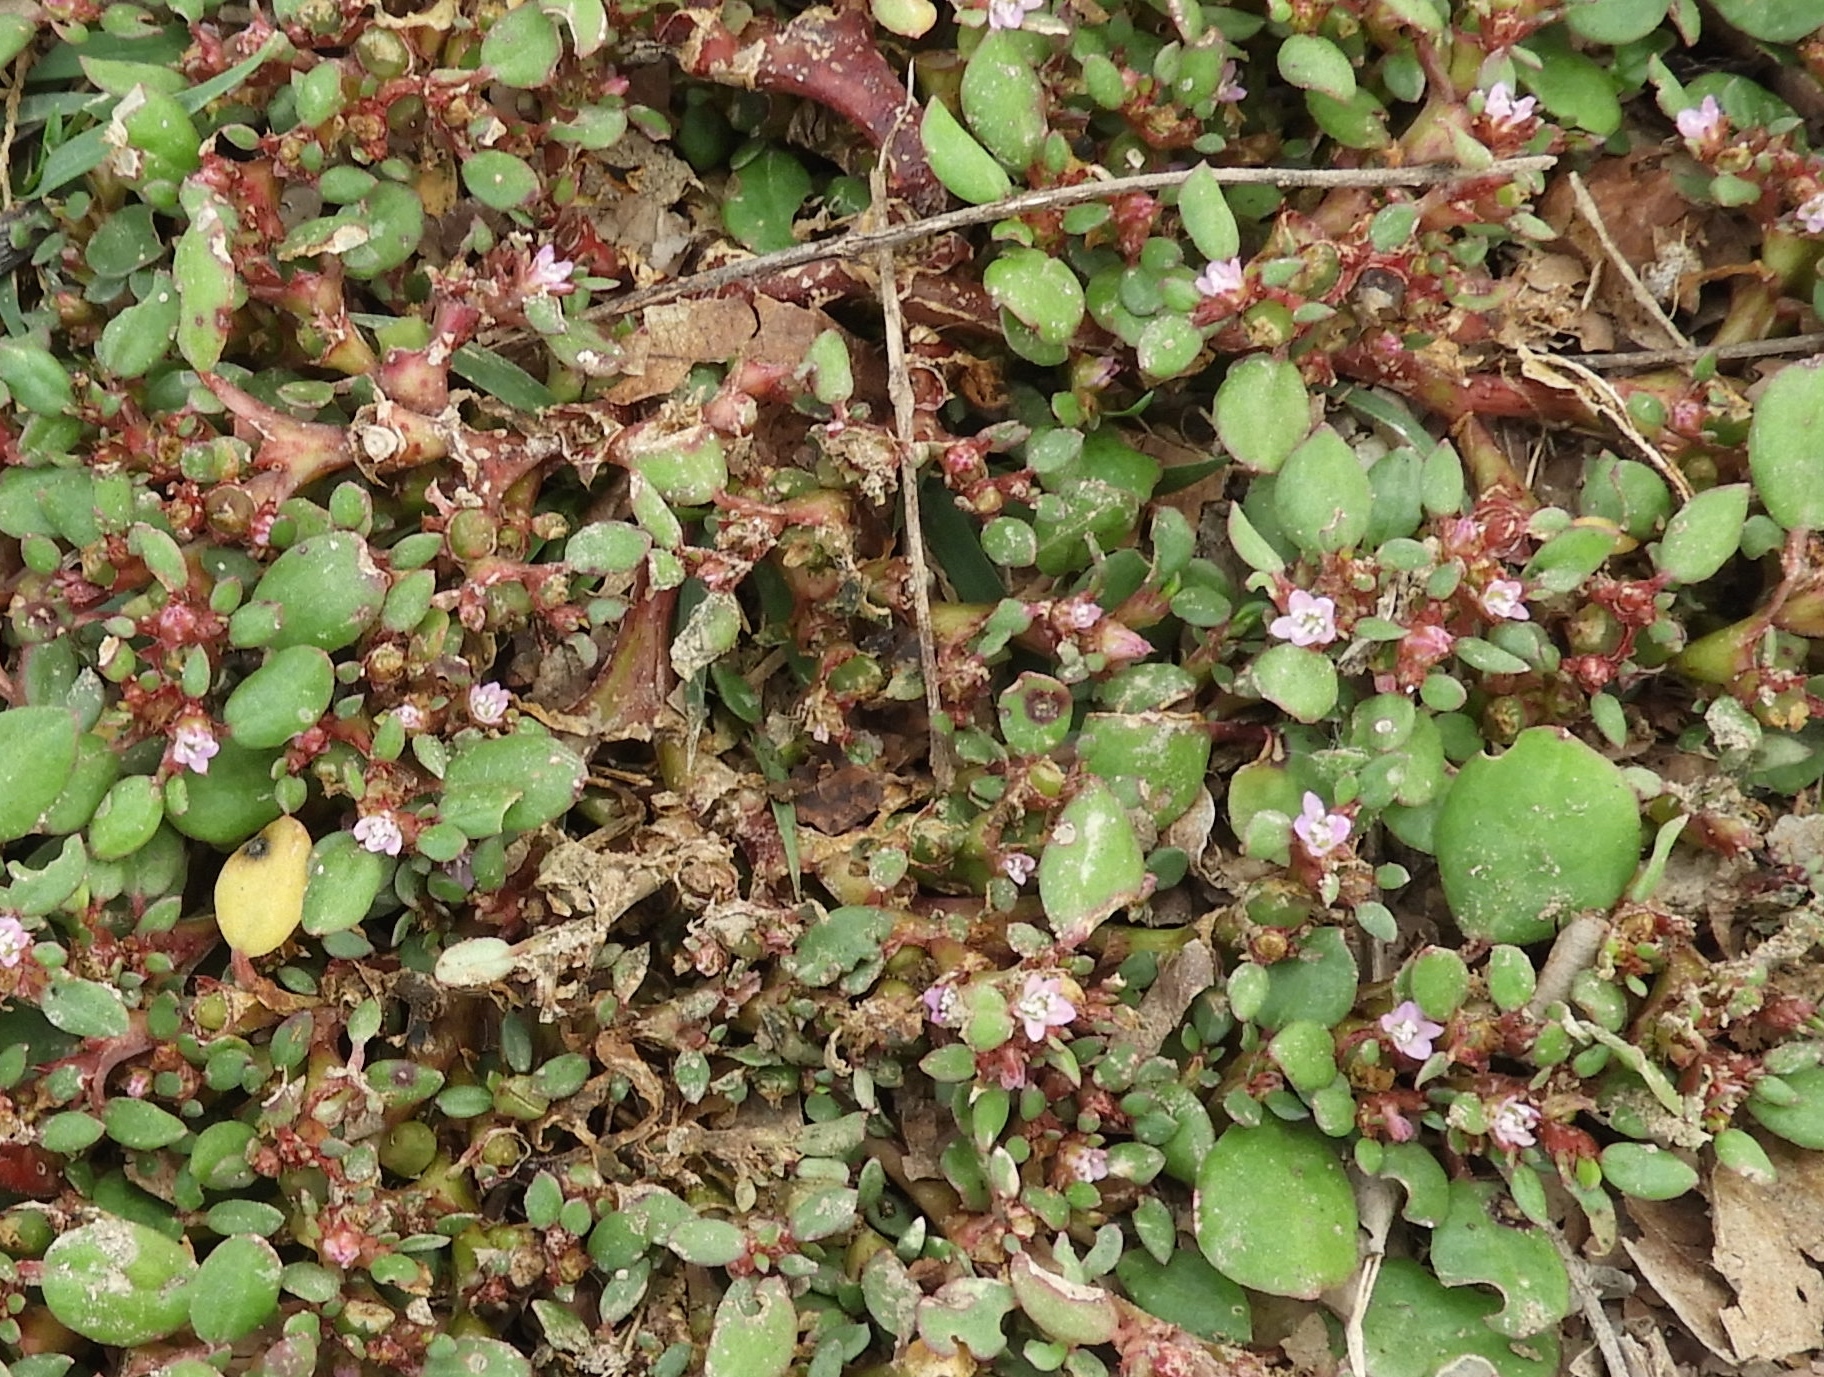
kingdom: Plantae
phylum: Tracheophyta
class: Magnoliopsida
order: Caryophyllales
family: Aizoaceae
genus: Trianthema
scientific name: Trianthema portulacastrum
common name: Desert horsepurslane
